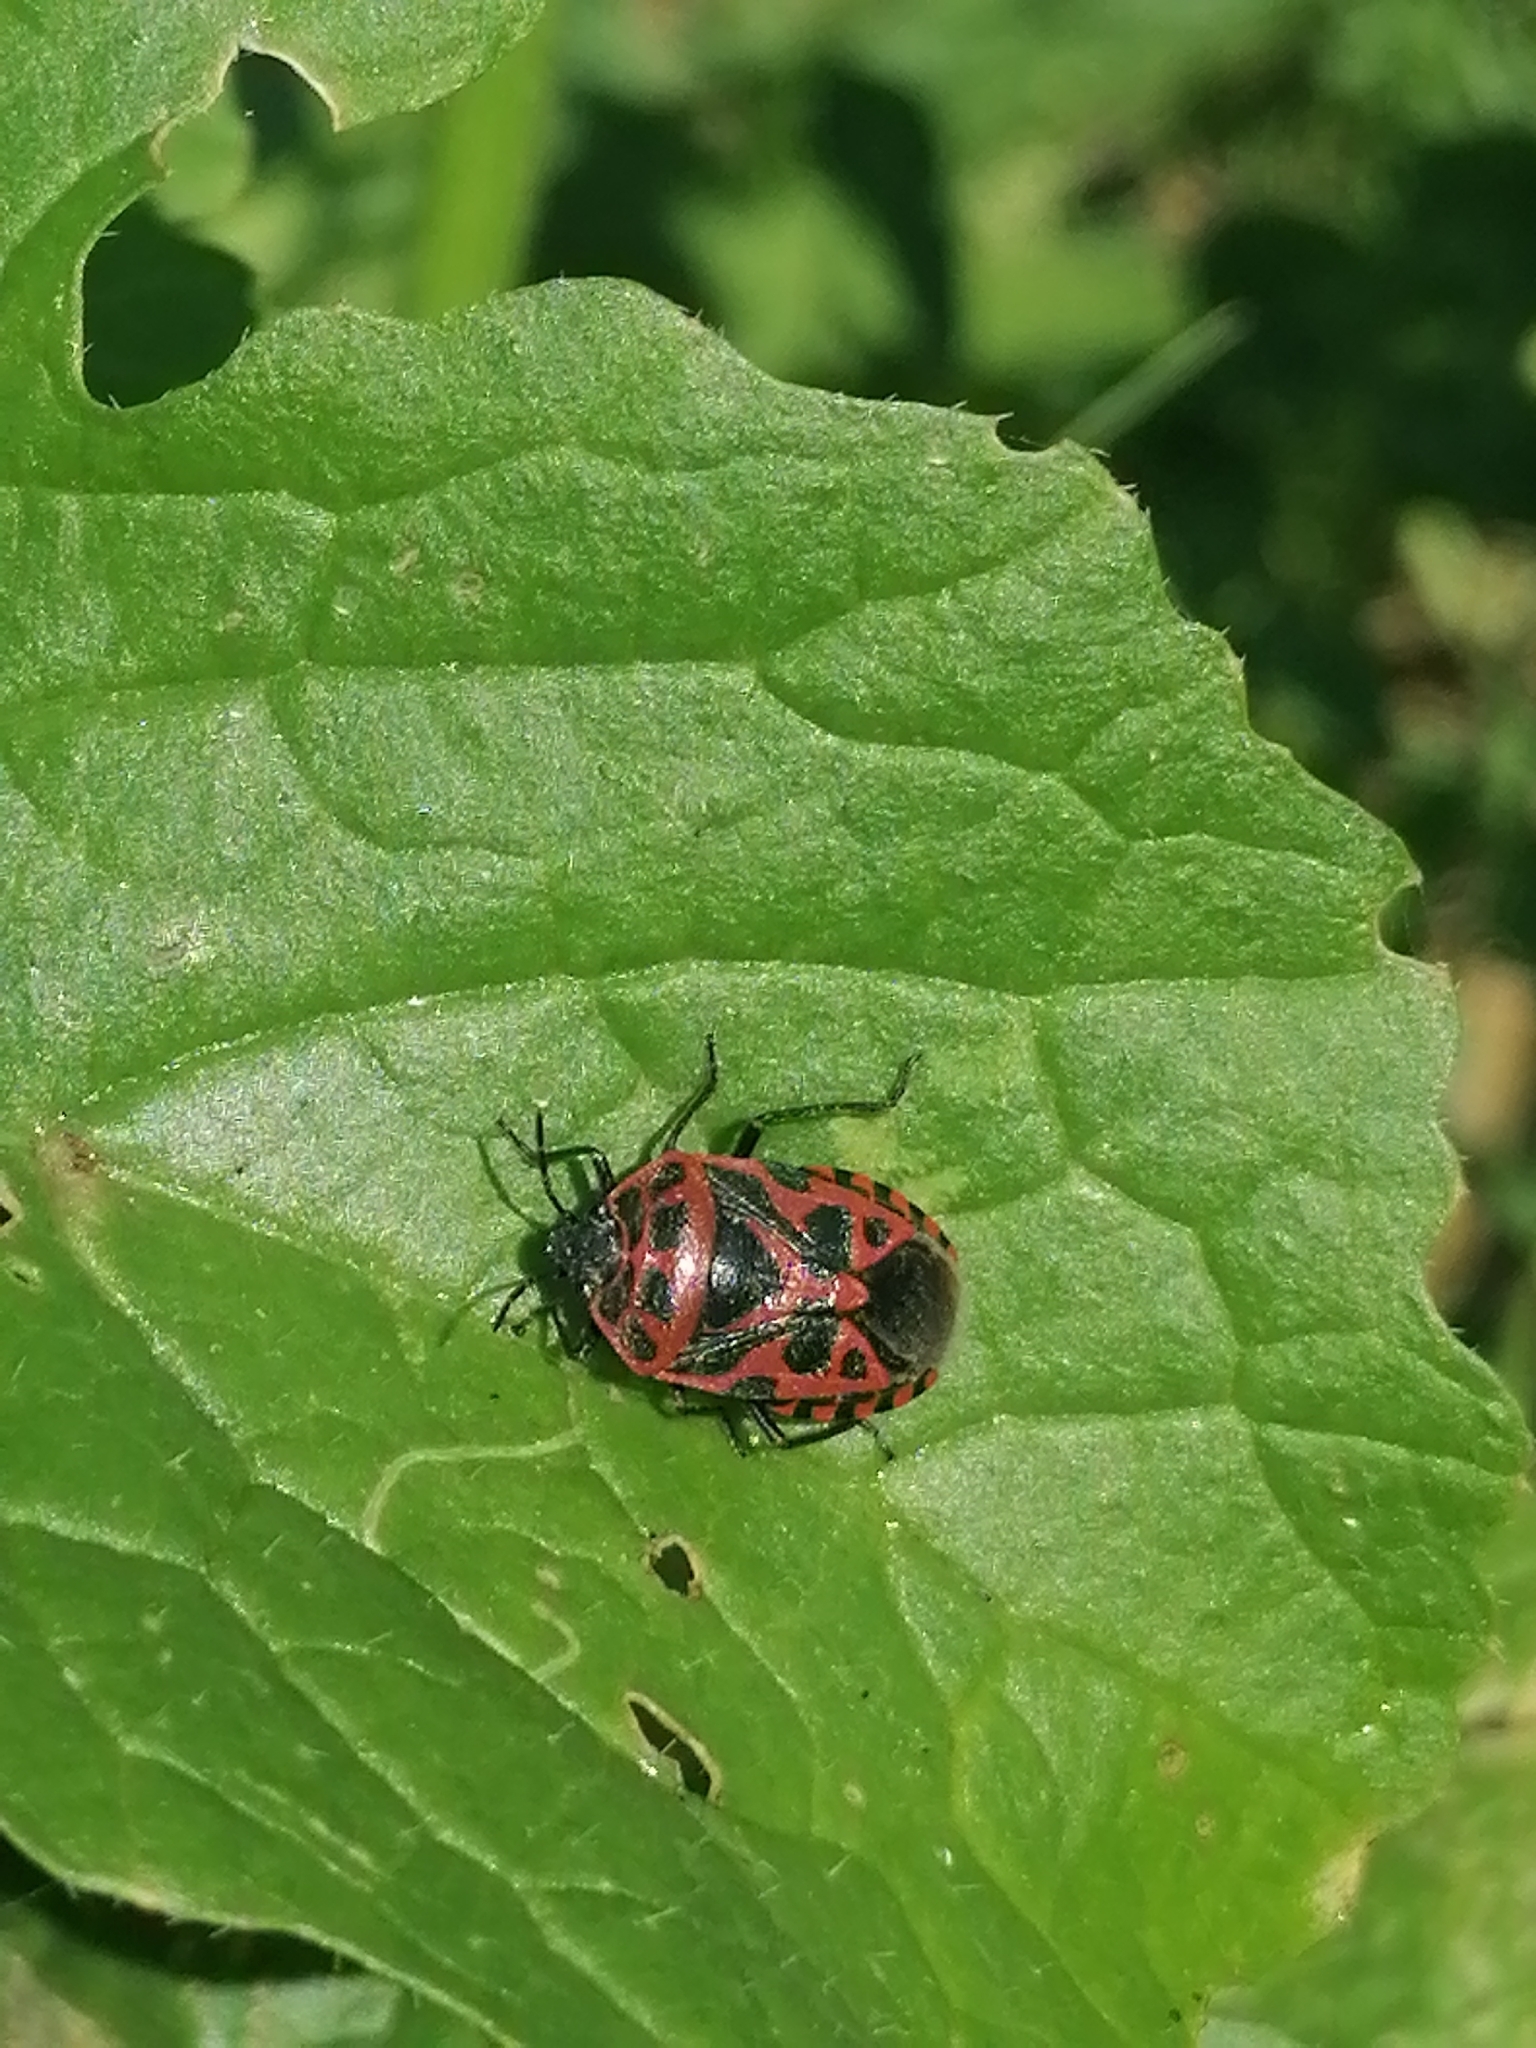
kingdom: Animalia
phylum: Arthropoda
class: Insecta
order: Hemiptera
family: Pentatomidae
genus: Eurydema
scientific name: Eurydema ventralis
